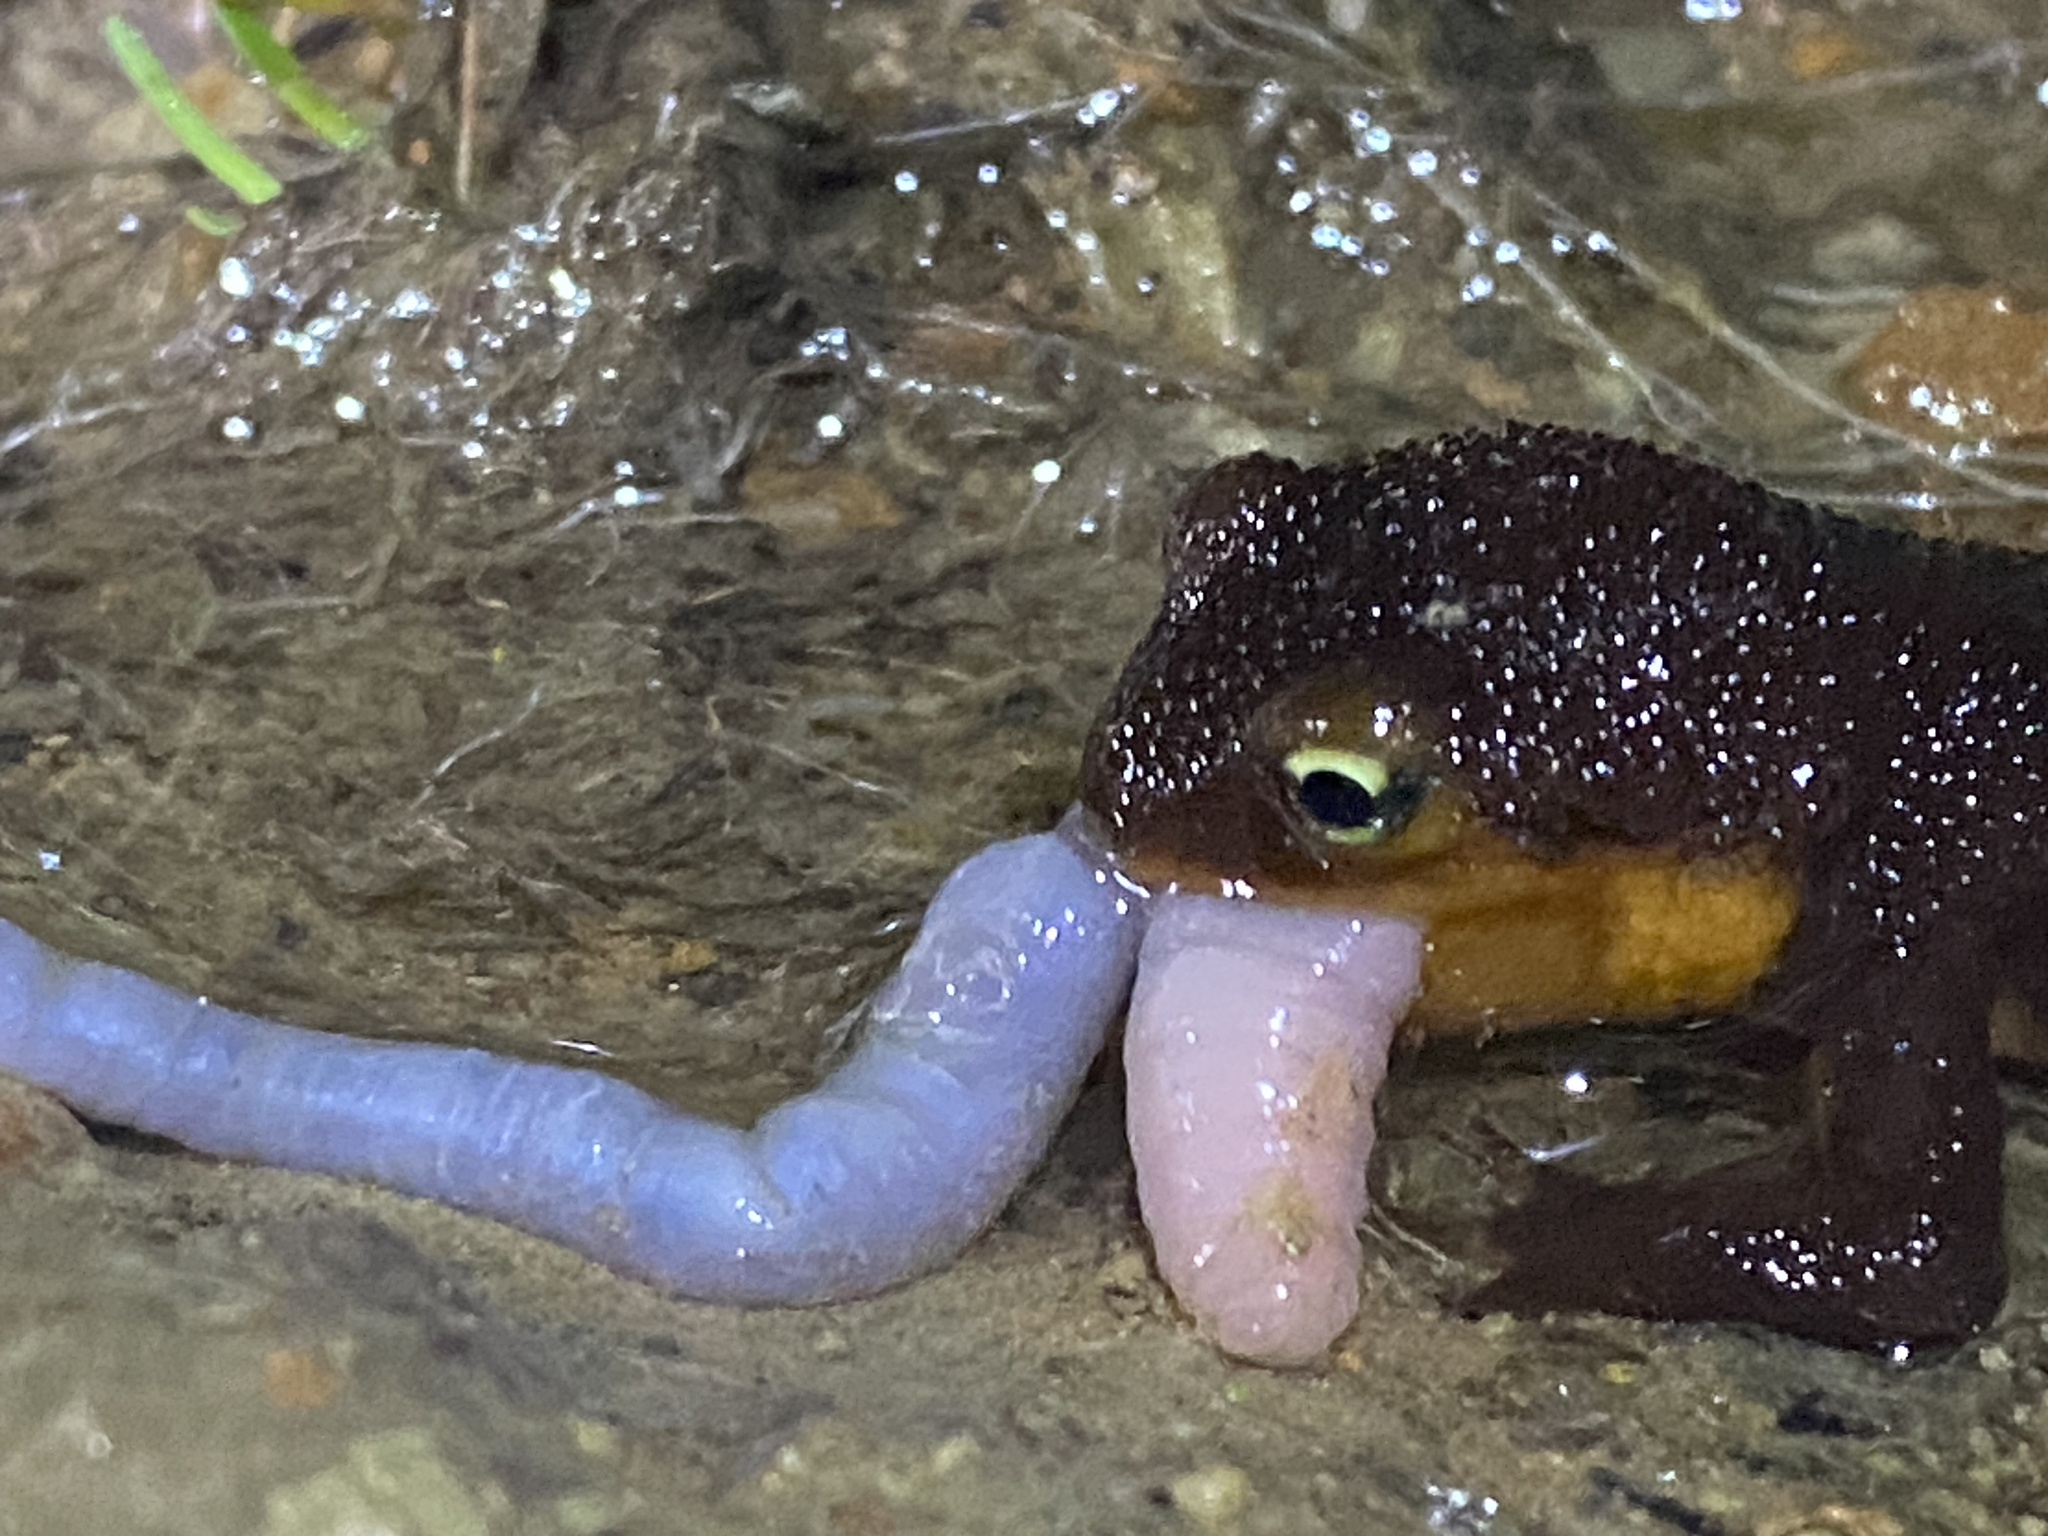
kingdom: Animalia
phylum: Chordata
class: Amphibia
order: Caudata
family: Salamandridae
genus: Taricha
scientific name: Taricha torosa
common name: California newt
